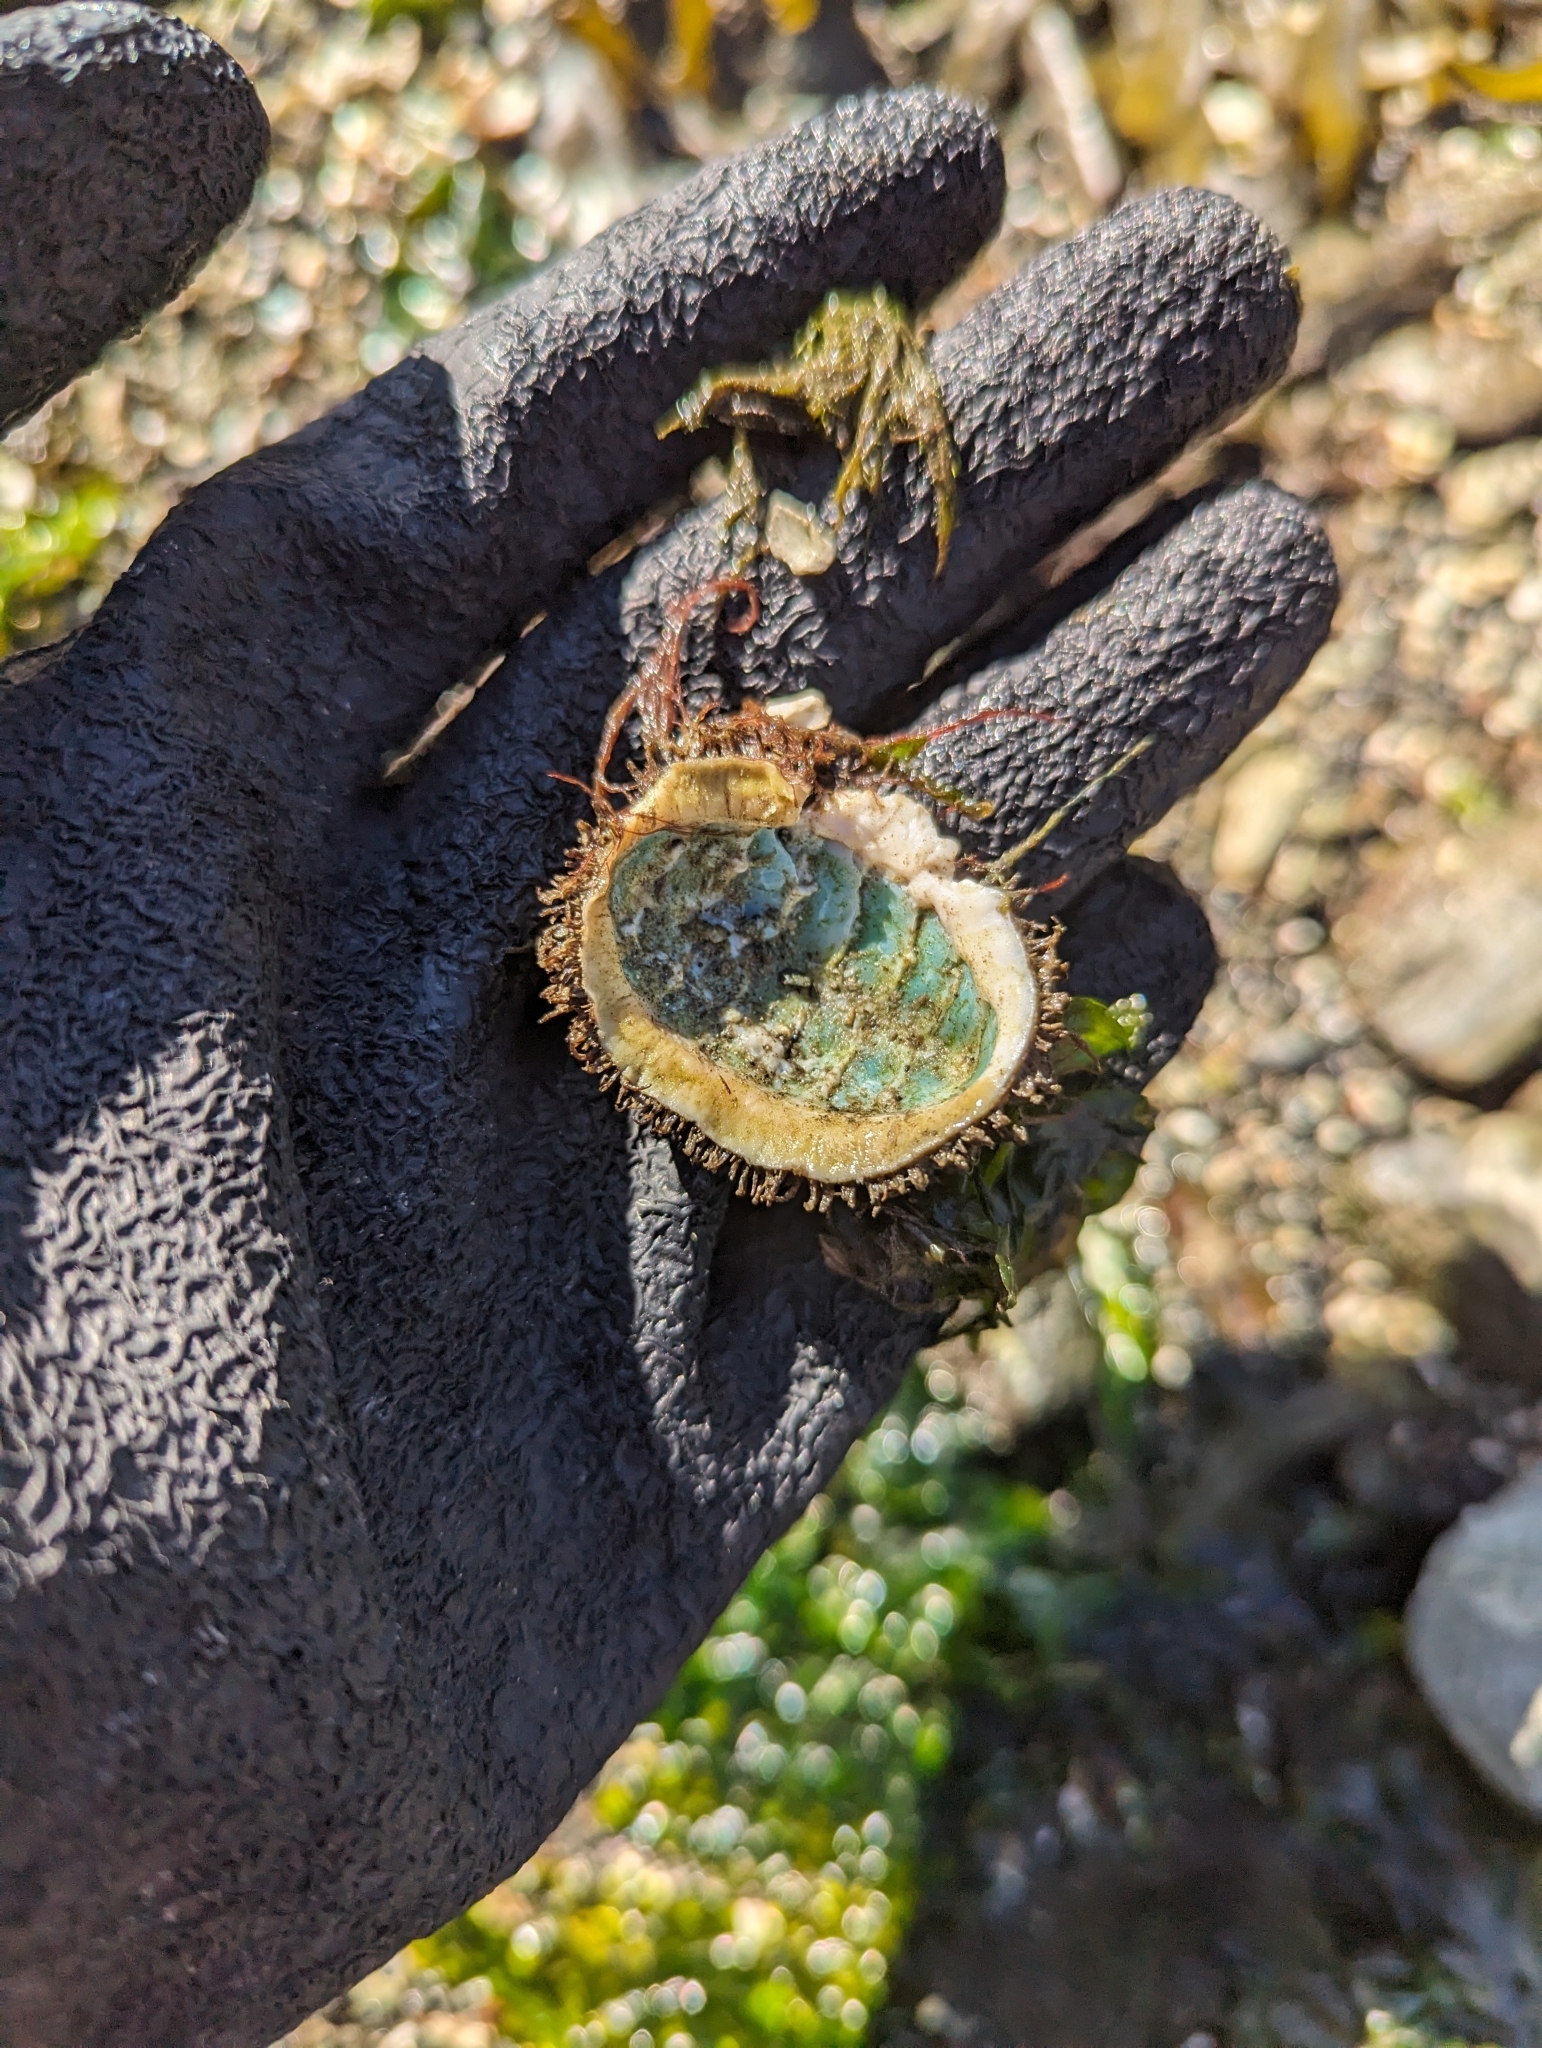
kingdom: Animalia
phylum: Mollusca
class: Polyplacophora
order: Chitonida
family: Mopaliidae
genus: Mopalia
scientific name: Mopalia muscosa
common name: Mossy chiton
